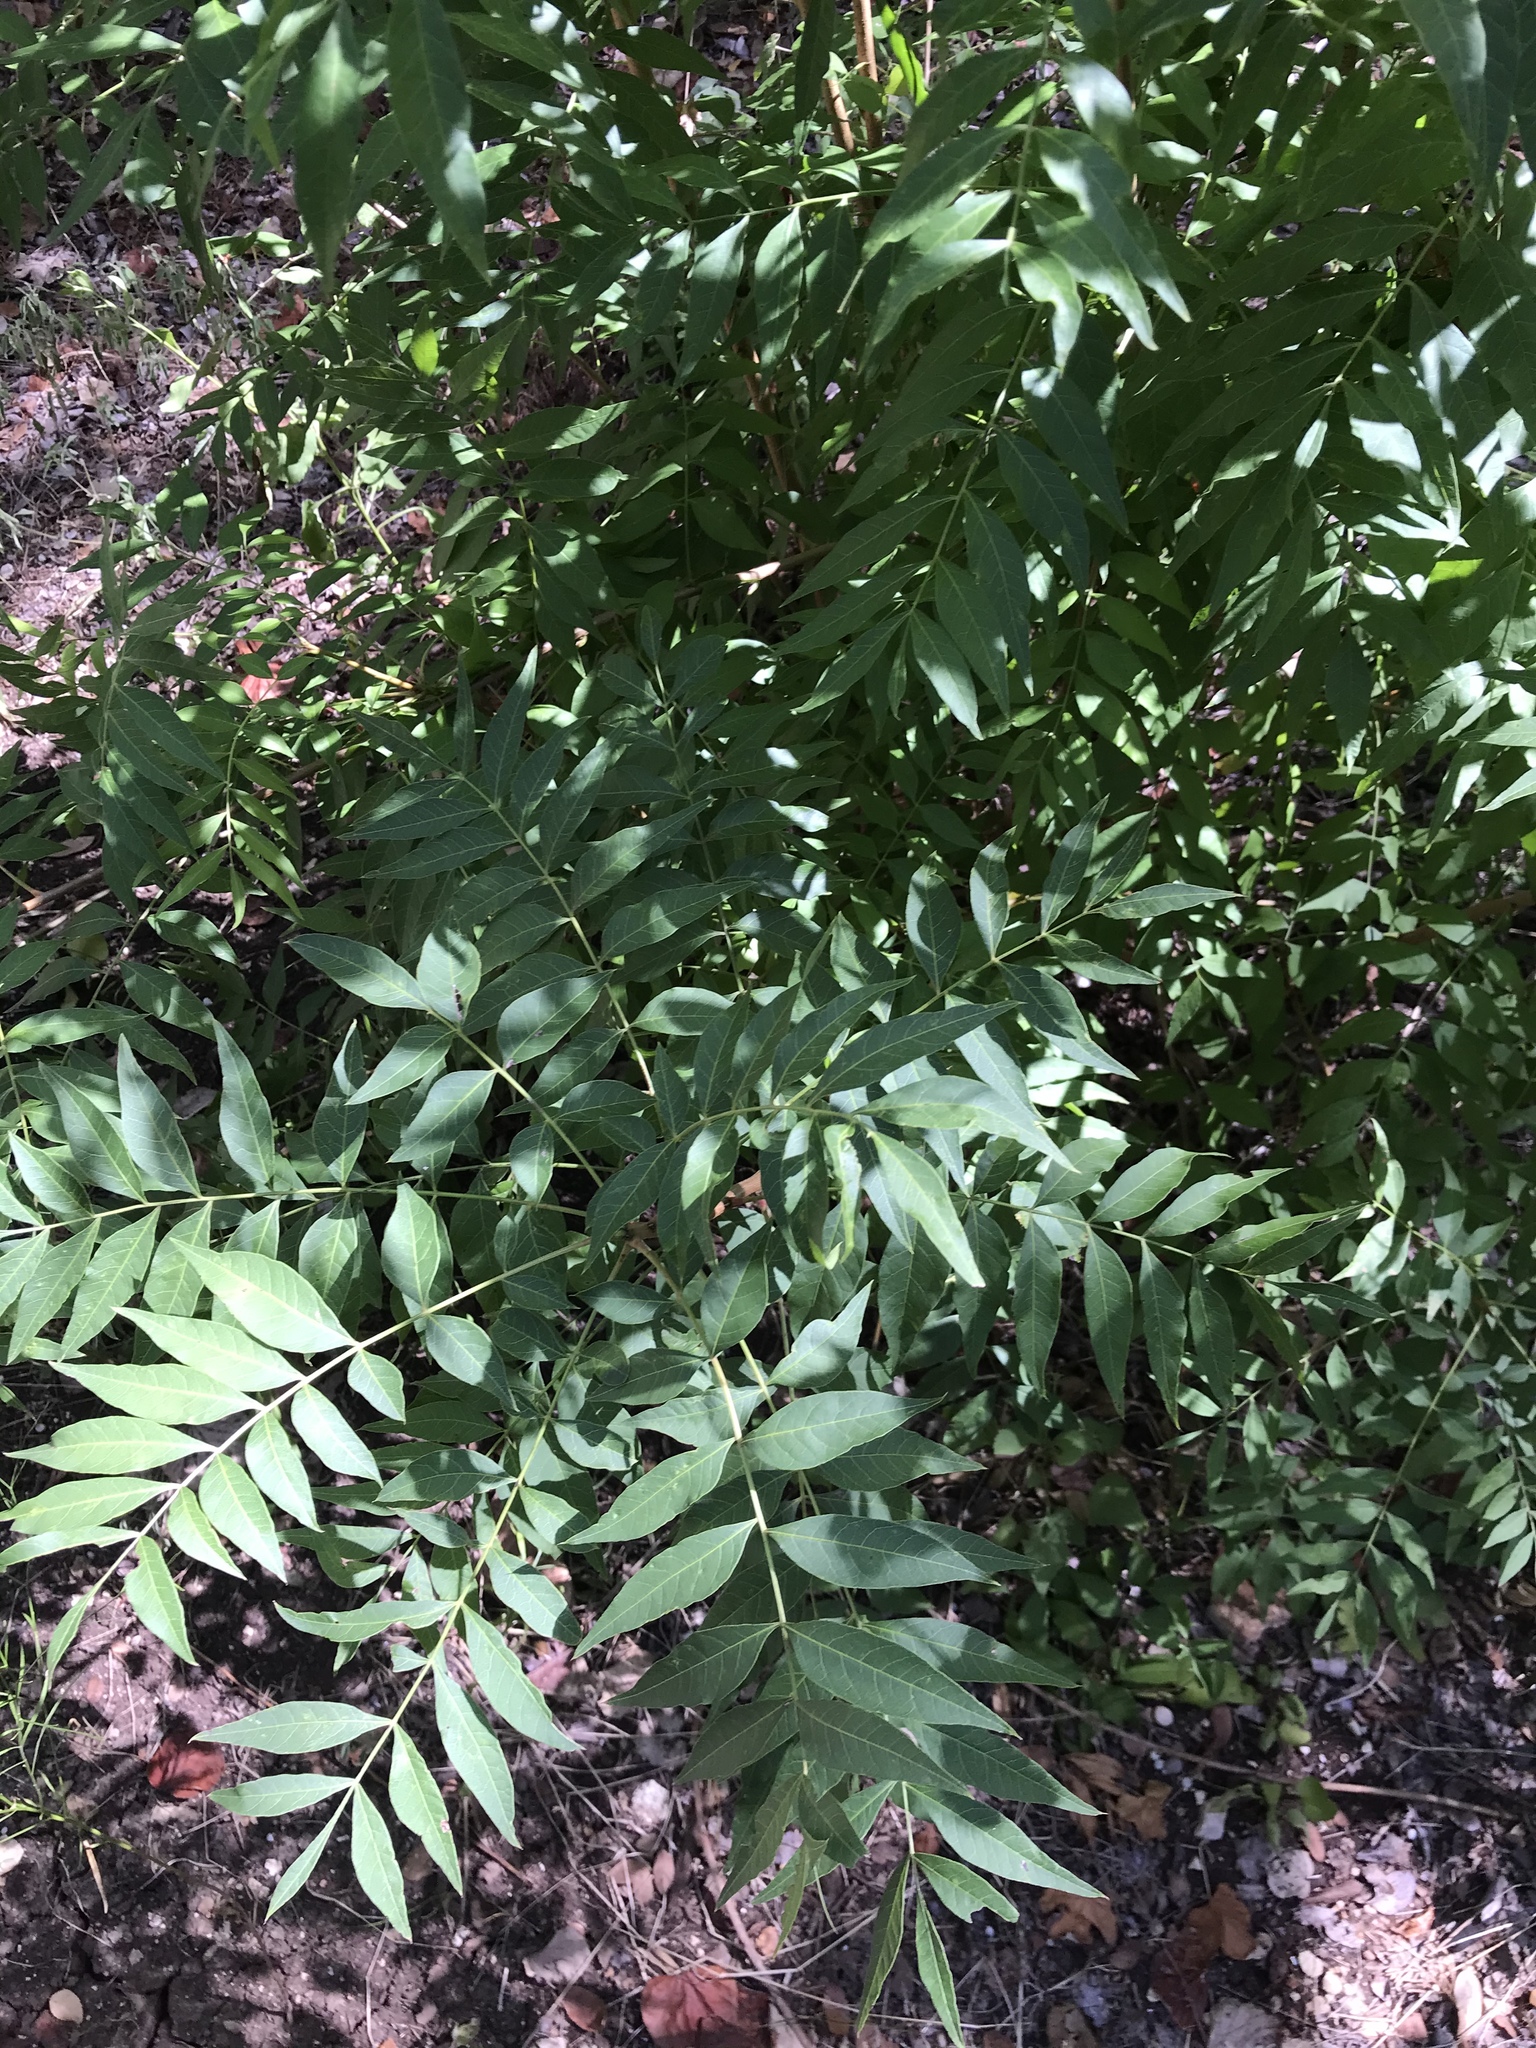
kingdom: Plantae
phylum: Tracheophyta
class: Magnoliopsida
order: Sapindales
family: Anacardiaceae
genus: Pistacia
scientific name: Pistacia chinensis
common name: Chinese pistache
